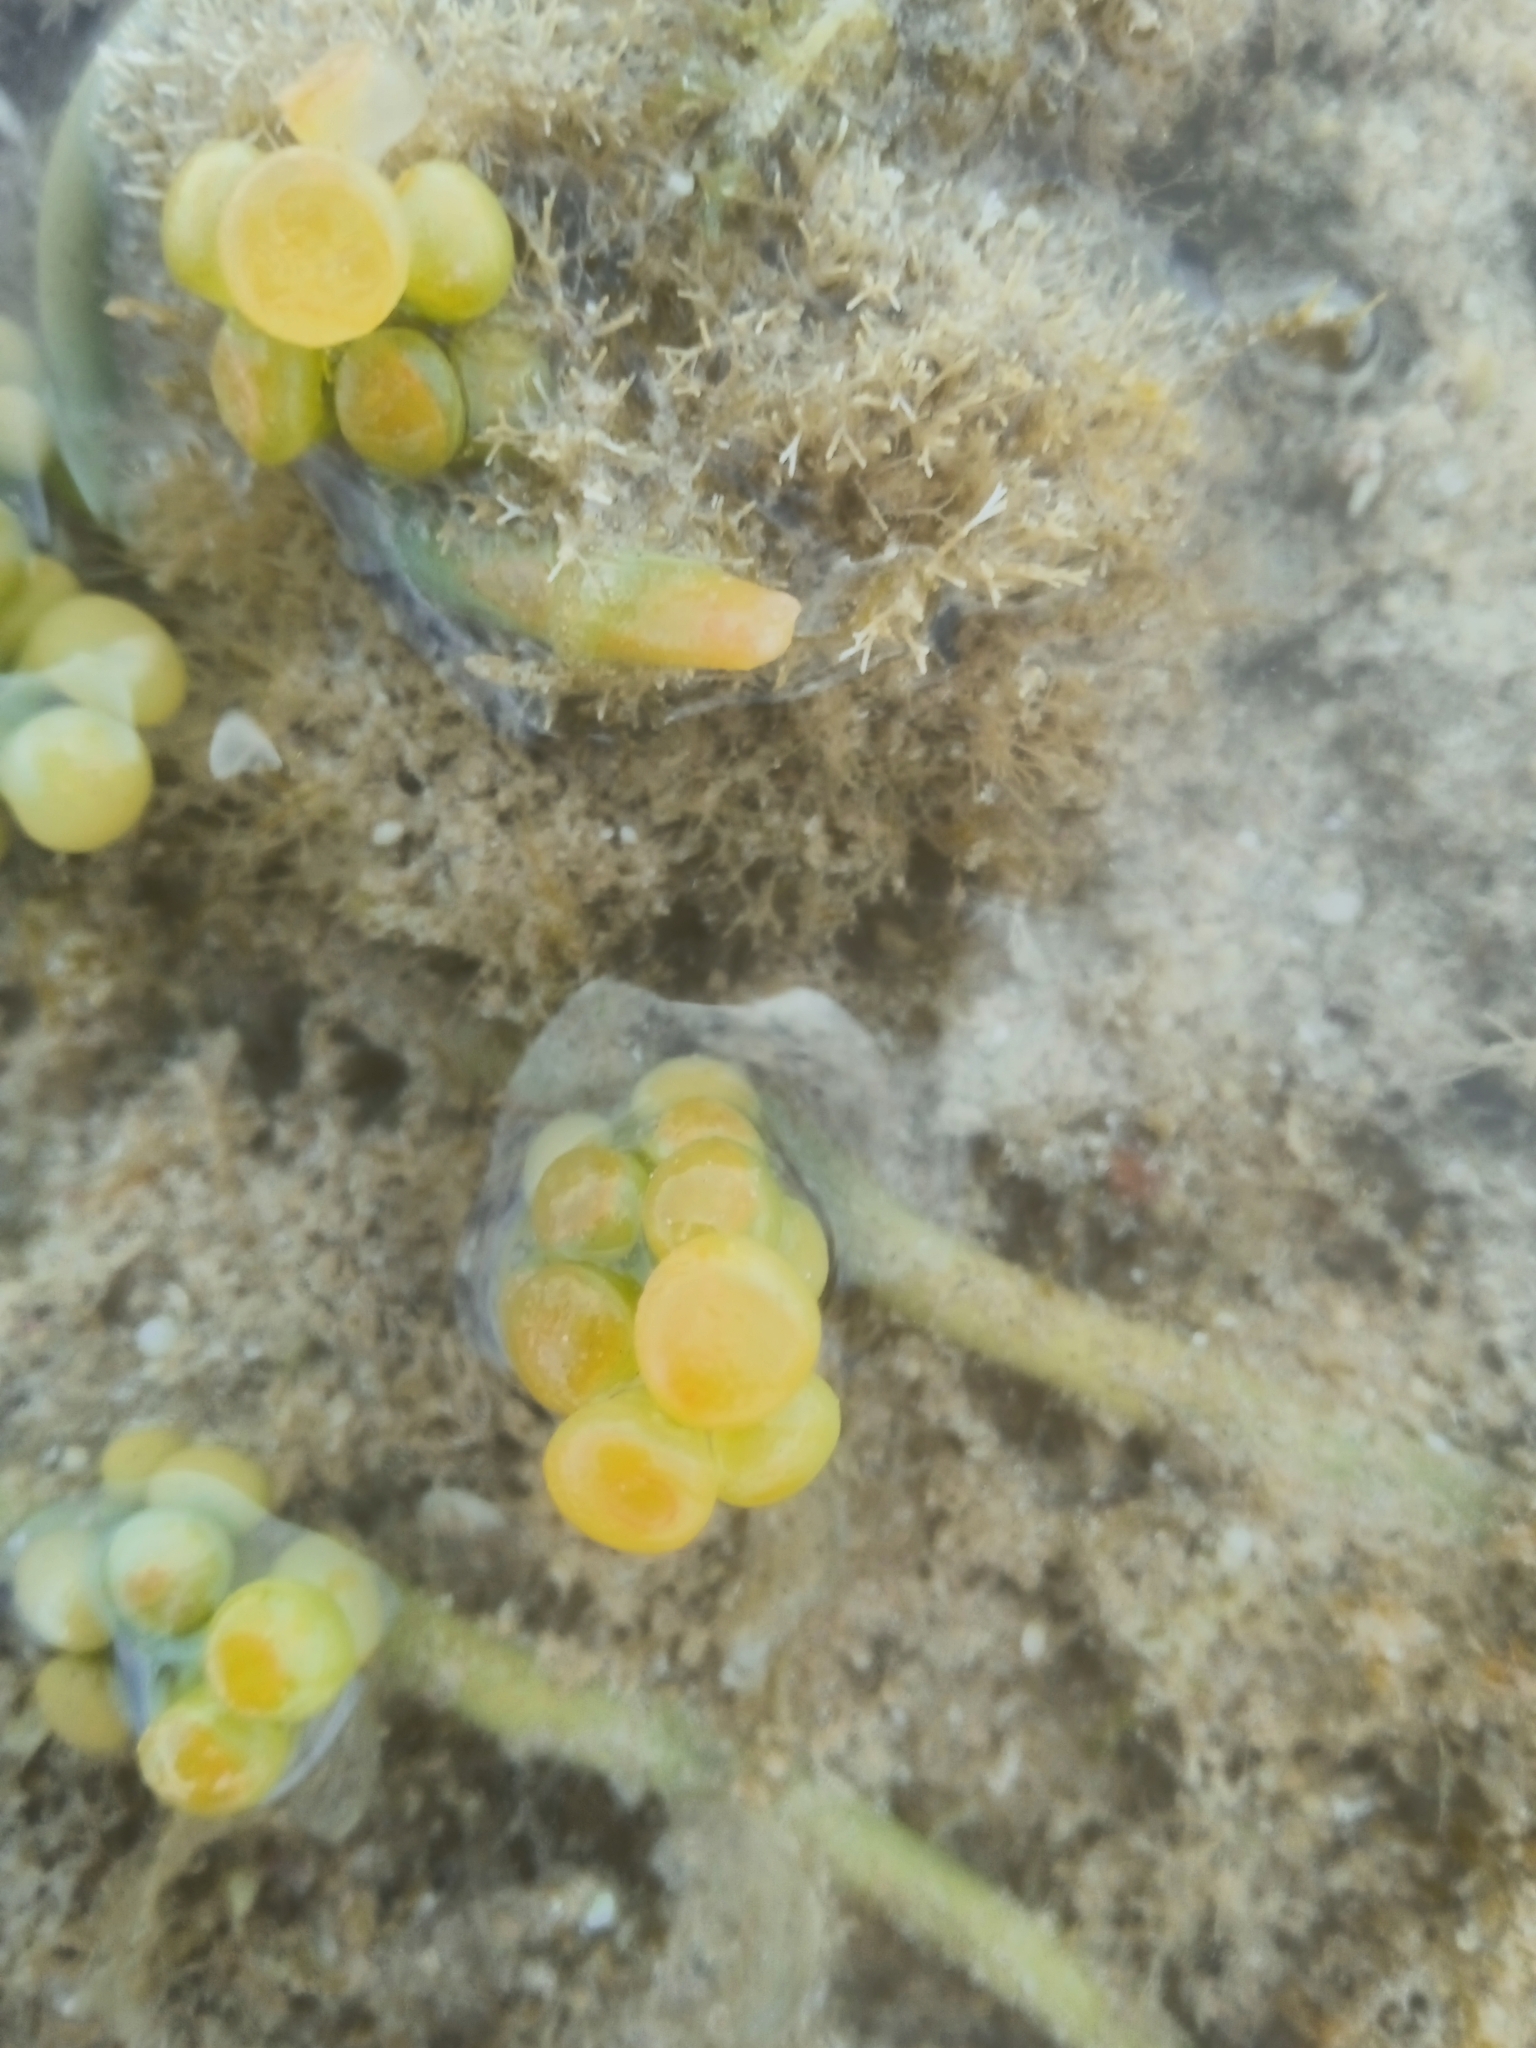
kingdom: Plantae
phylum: Chlorophyta
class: Ulvophyceae
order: Bryopsidales
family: Caulerpaceae
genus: Caulerpa
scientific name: Caulerpa racemosa
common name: Green grape algae
